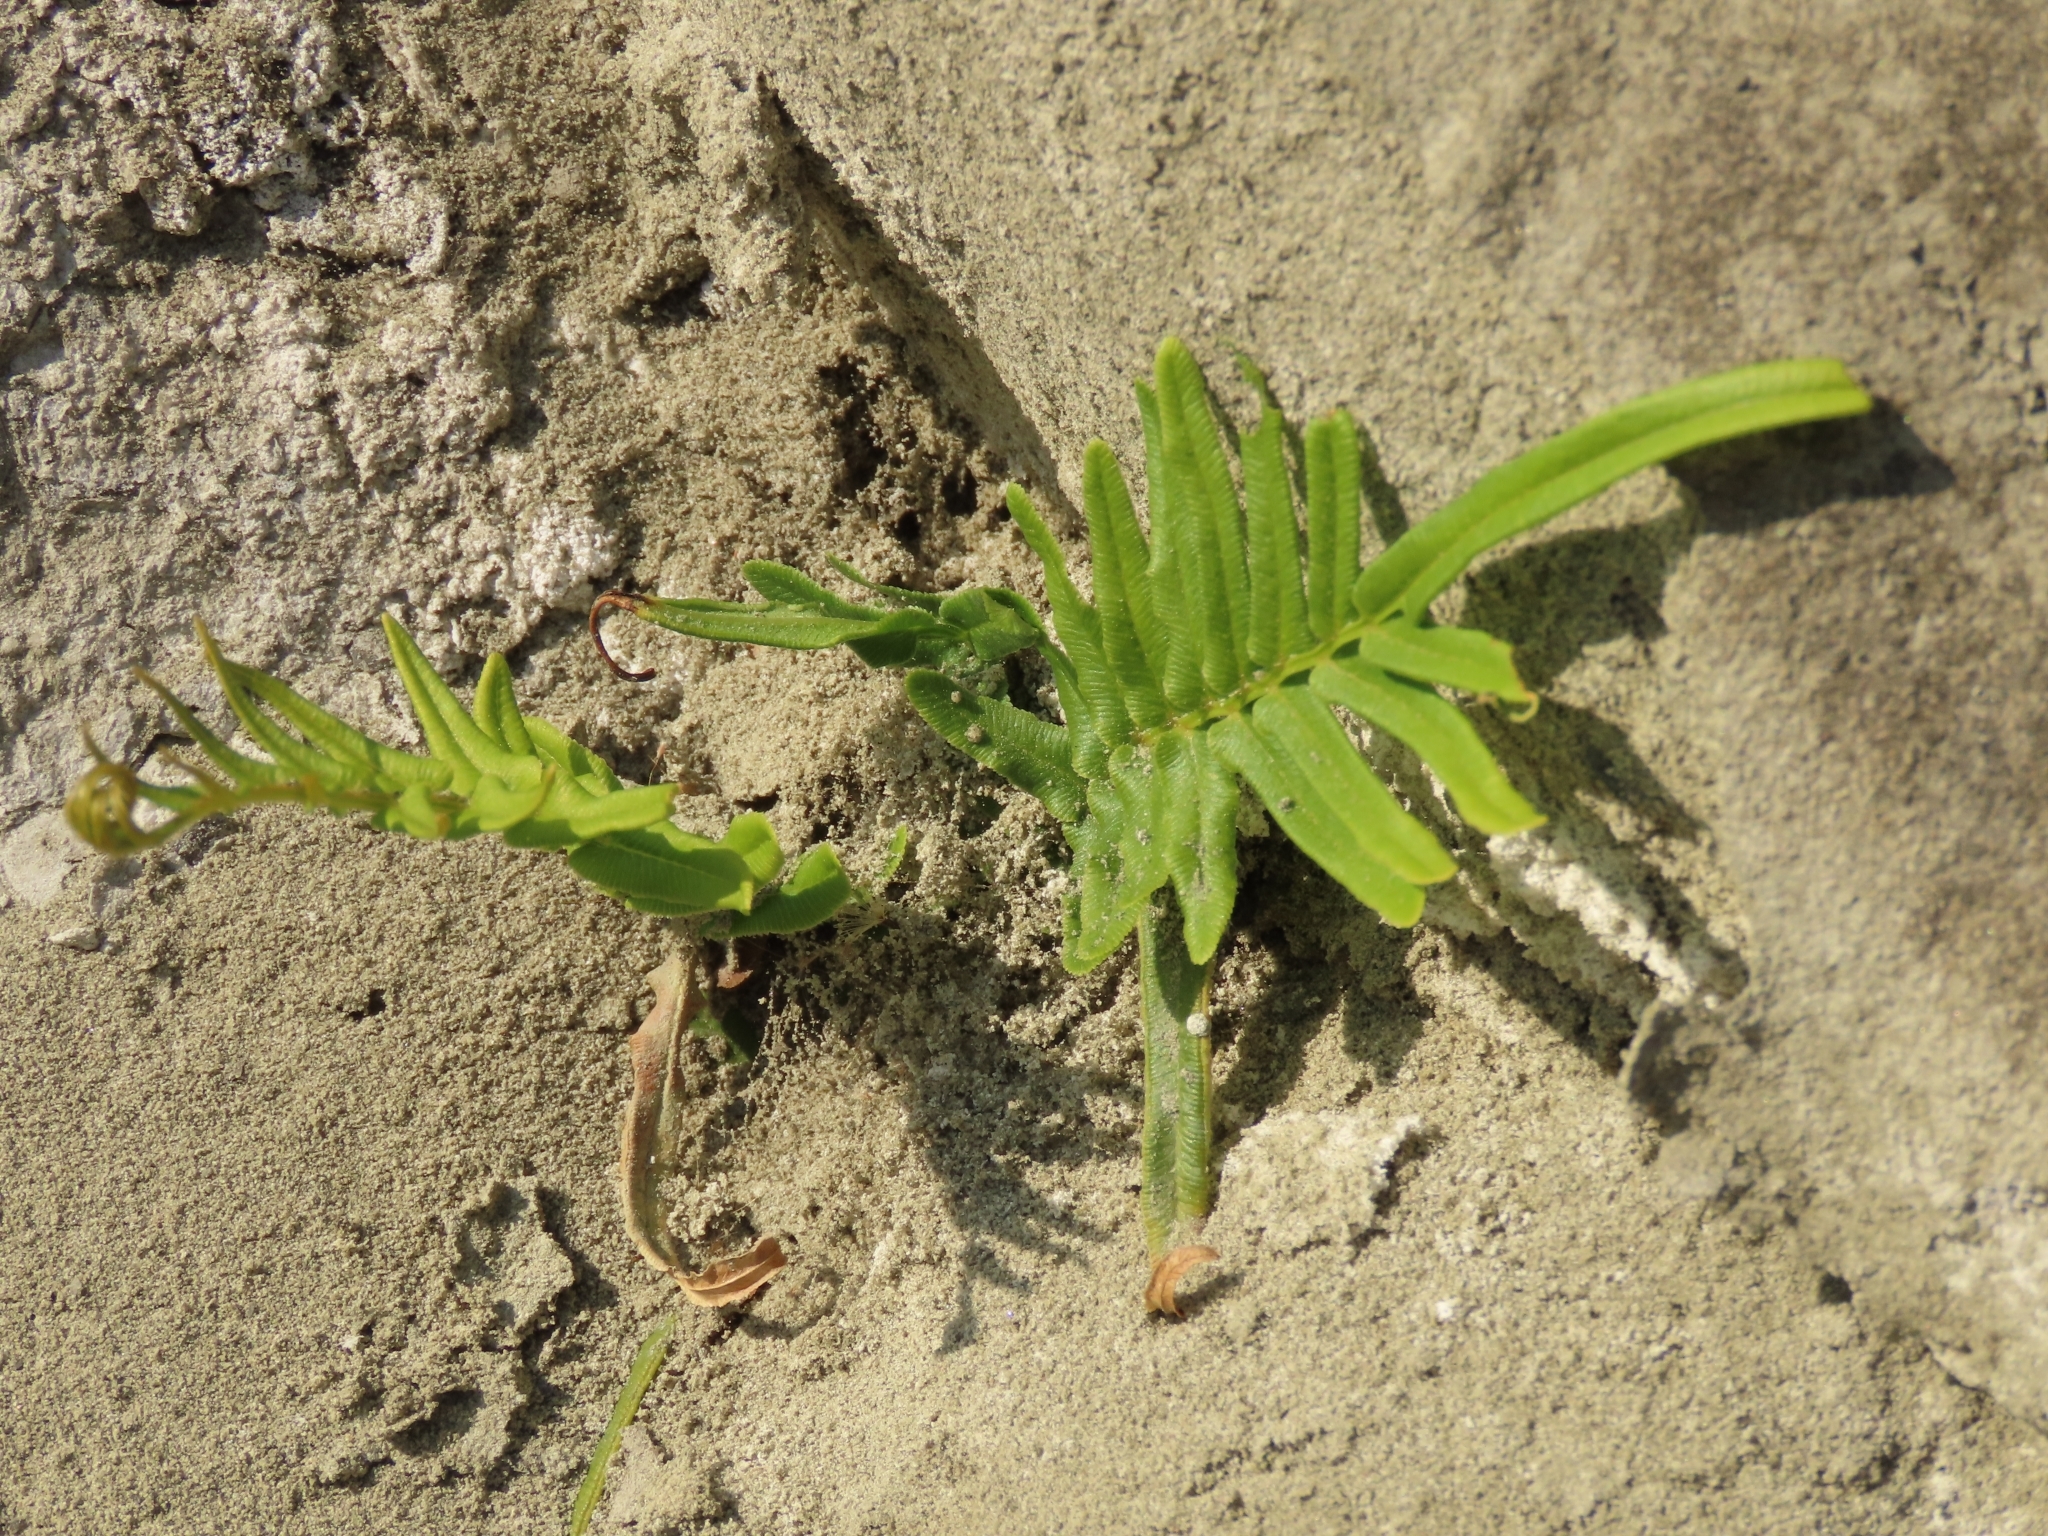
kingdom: Plantae
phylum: Tracheophyta
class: Polypodiopsida
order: Polypodiales
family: Pteridaceae
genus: Pteris
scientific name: Pteris vittata
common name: Ladder brake
